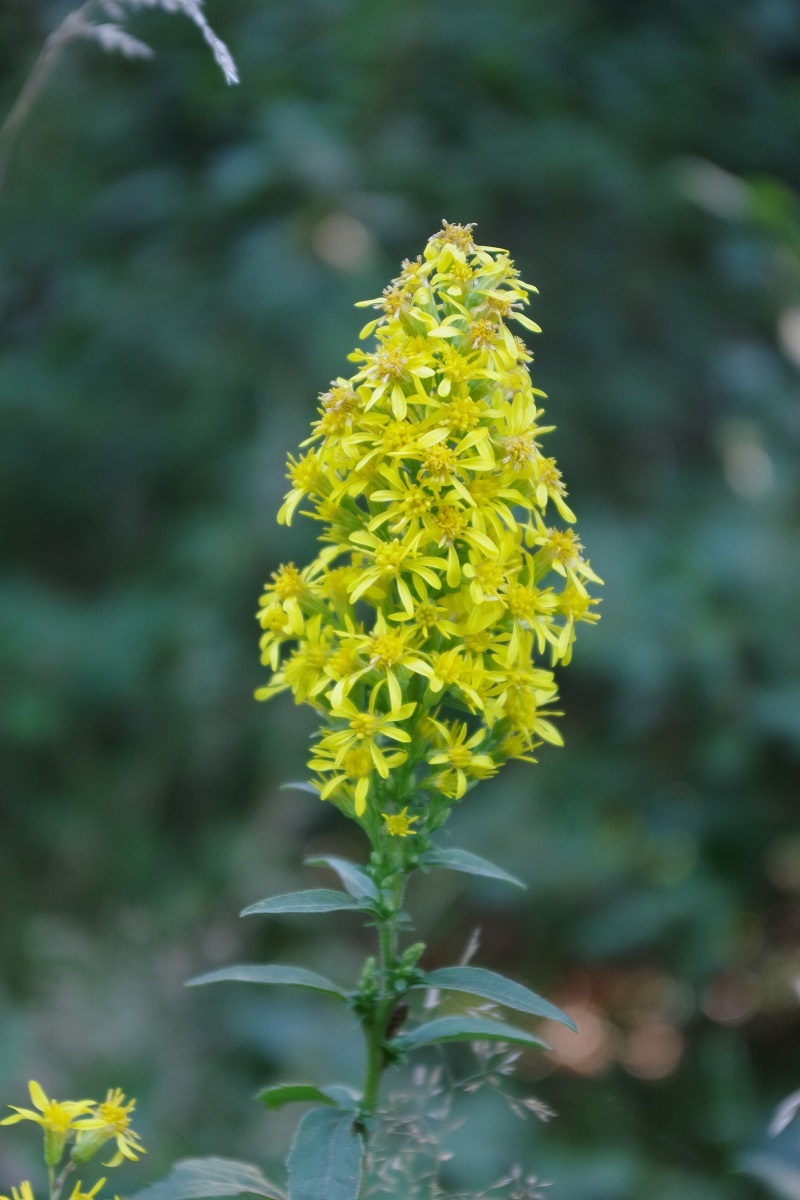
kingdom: Plantae
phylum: Tracheophyta
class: Magnoliopsida
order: Asterales
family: Asteraceae
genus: Solidago
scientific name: Solidago virgaurea
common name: Goldenrod
